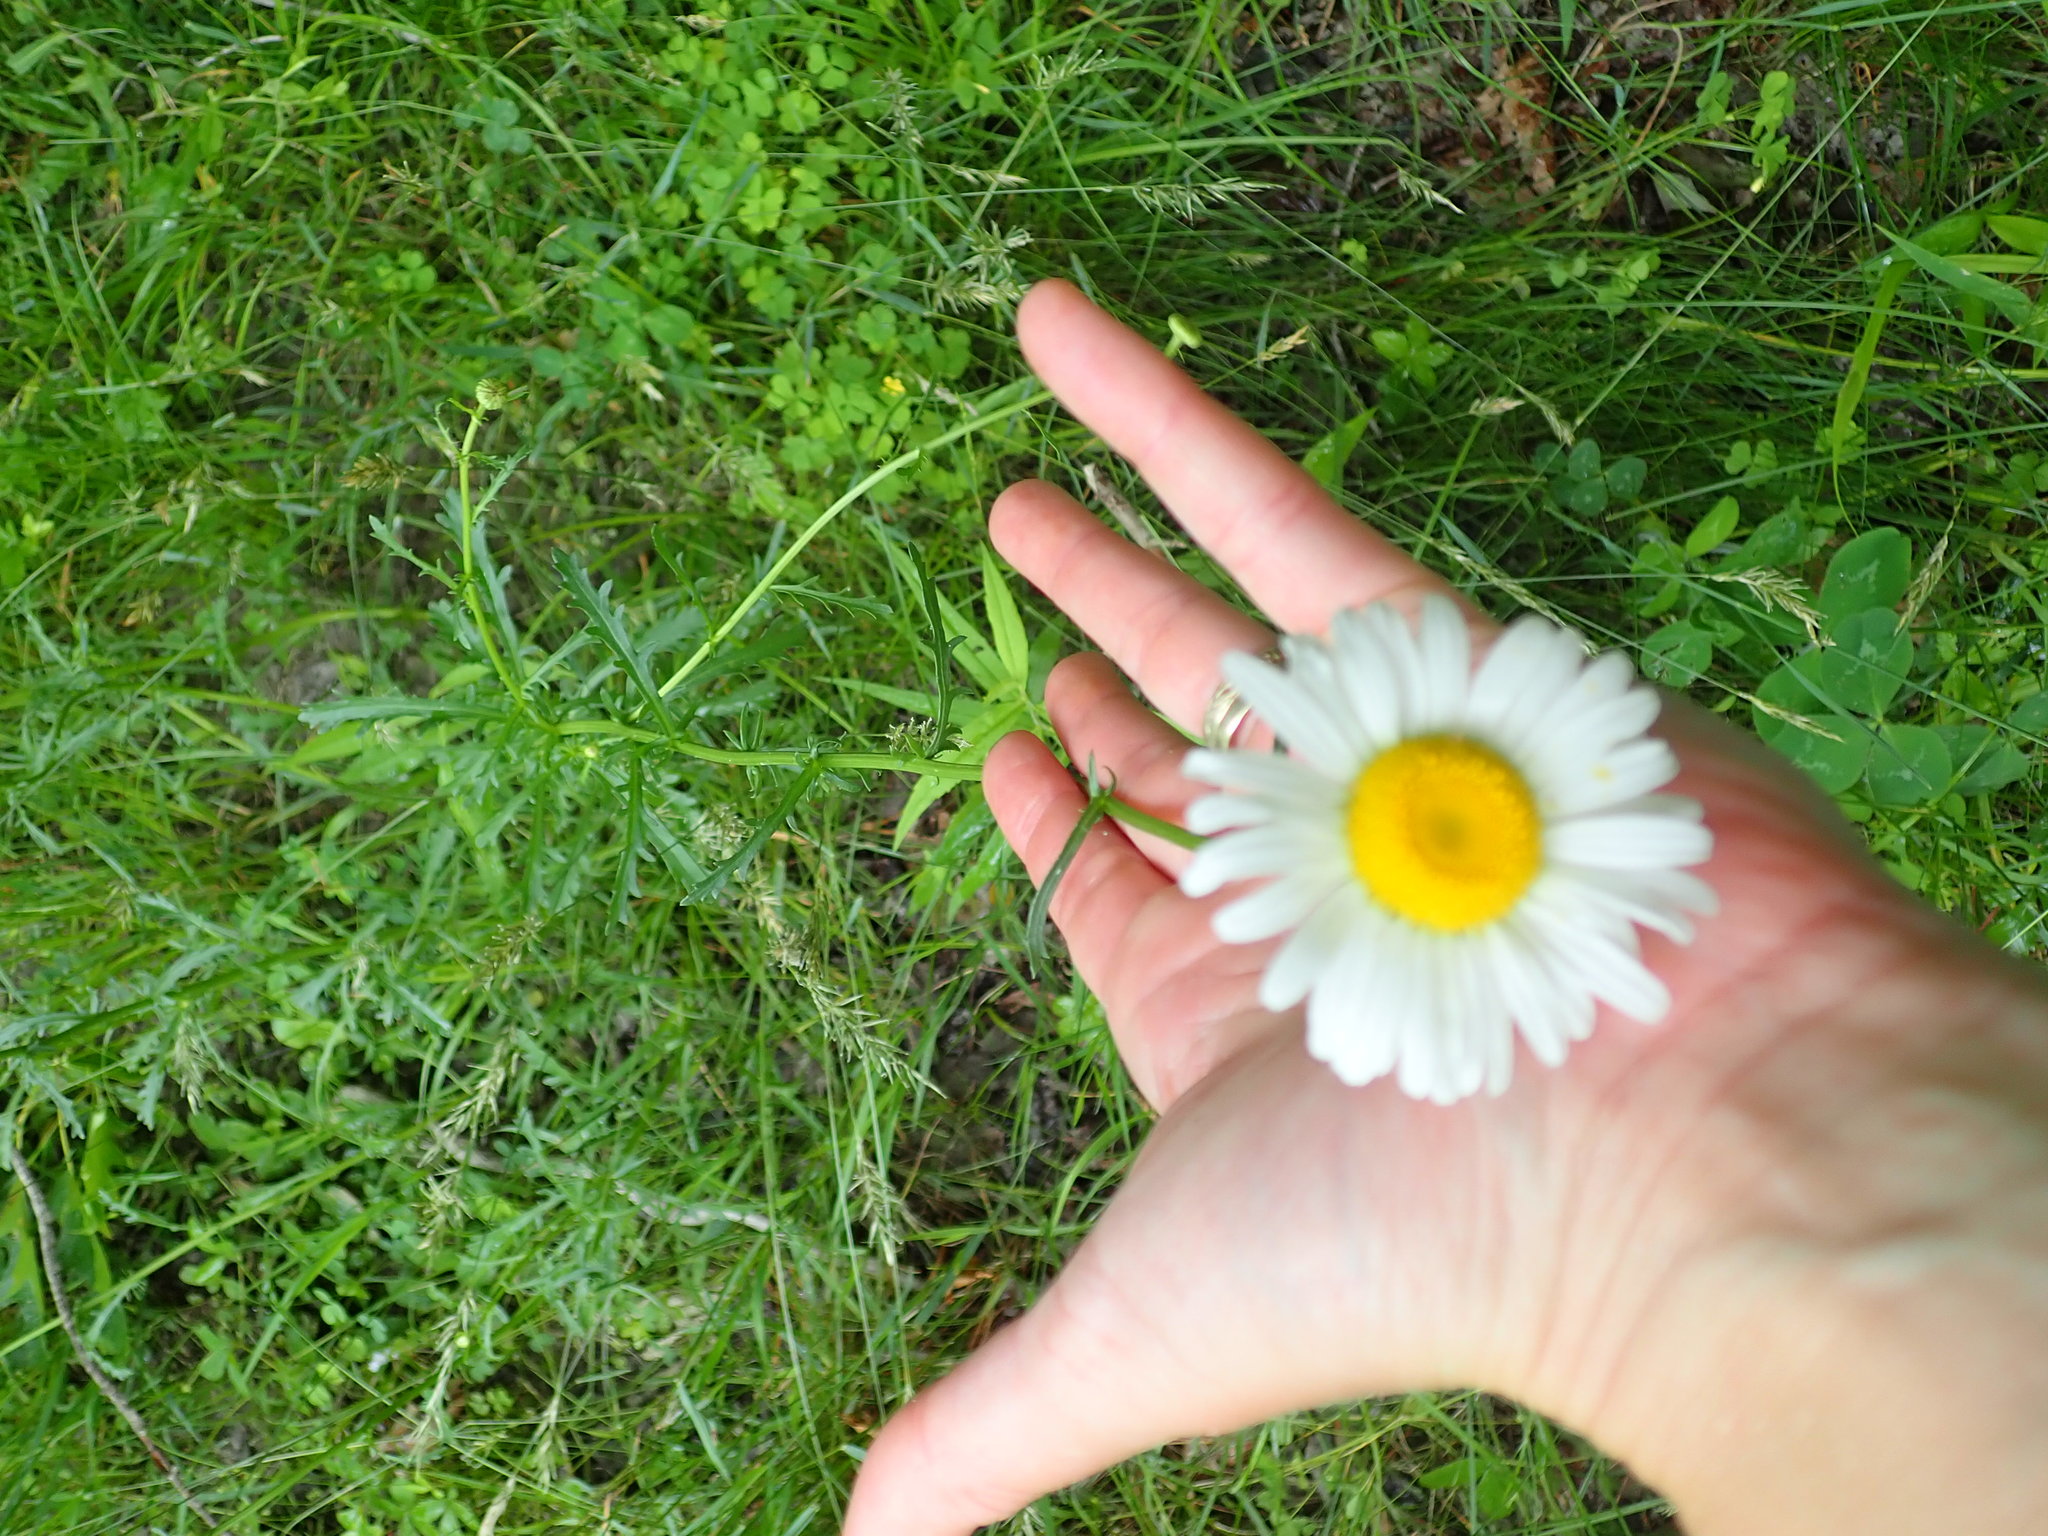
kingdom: Plantae
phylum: Tracheophyta
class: Magnoliopsida
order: Asterales
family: Asteraceae
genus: Leucanthemum
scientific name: Leucanthemum vulgare
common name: Oxeye daisy
